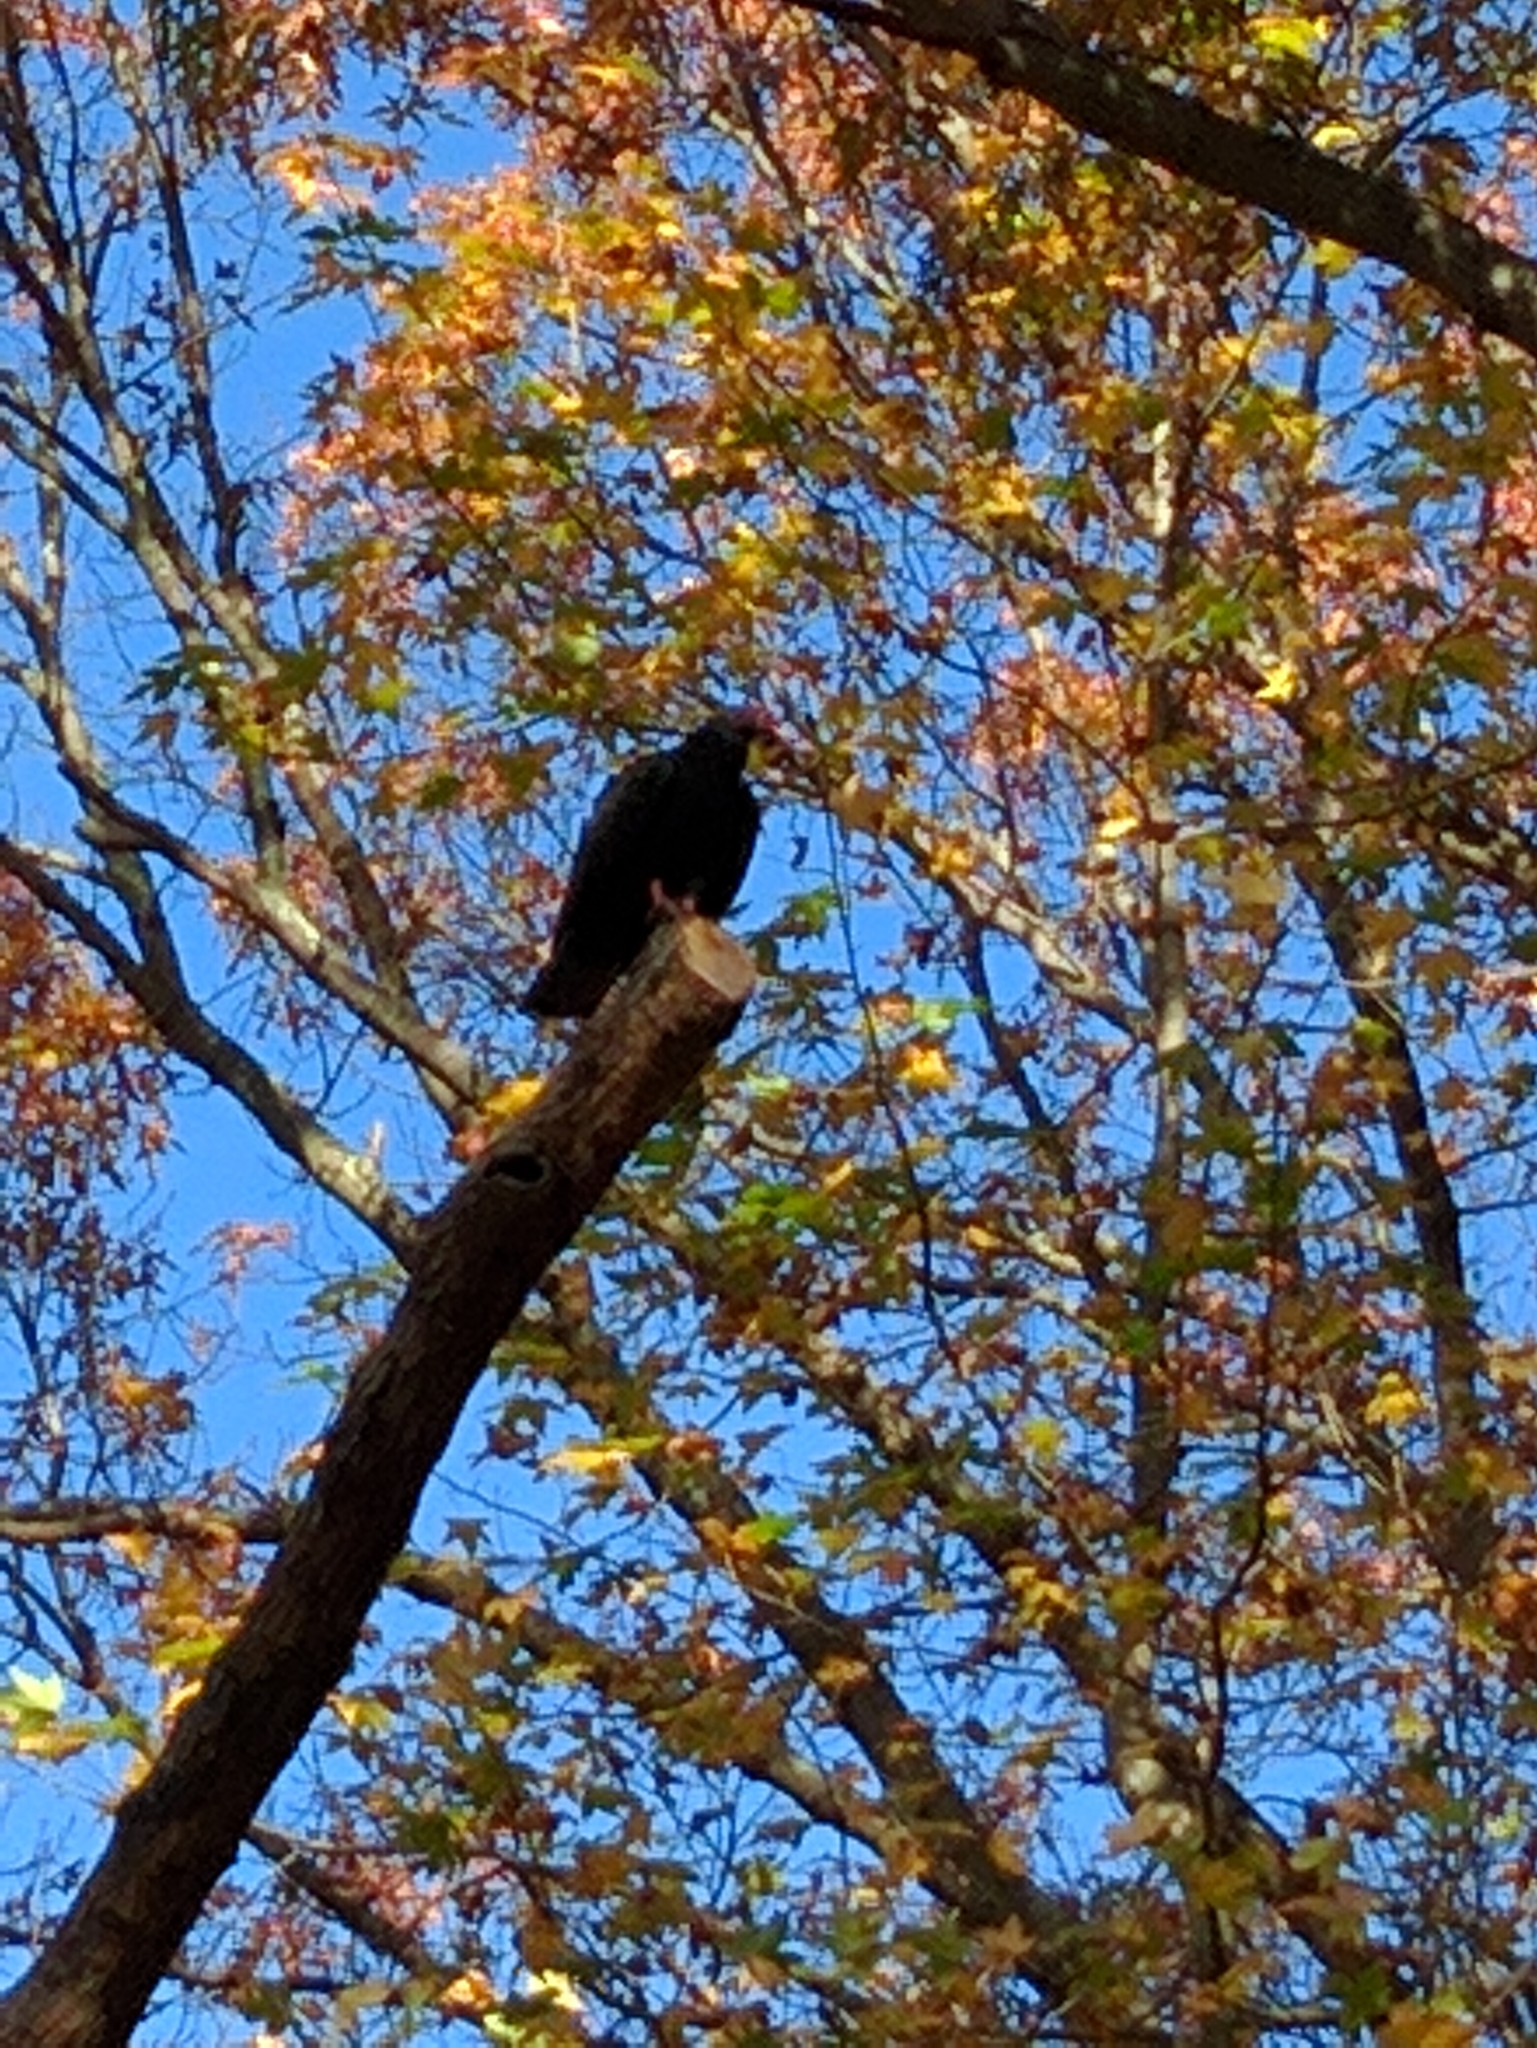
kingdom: Animalia
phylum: Chordata
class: Aves
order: Accipitriformes
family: Cathartidae
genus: Cathartes
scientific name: Cathartes aura
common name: Turkey vulture
